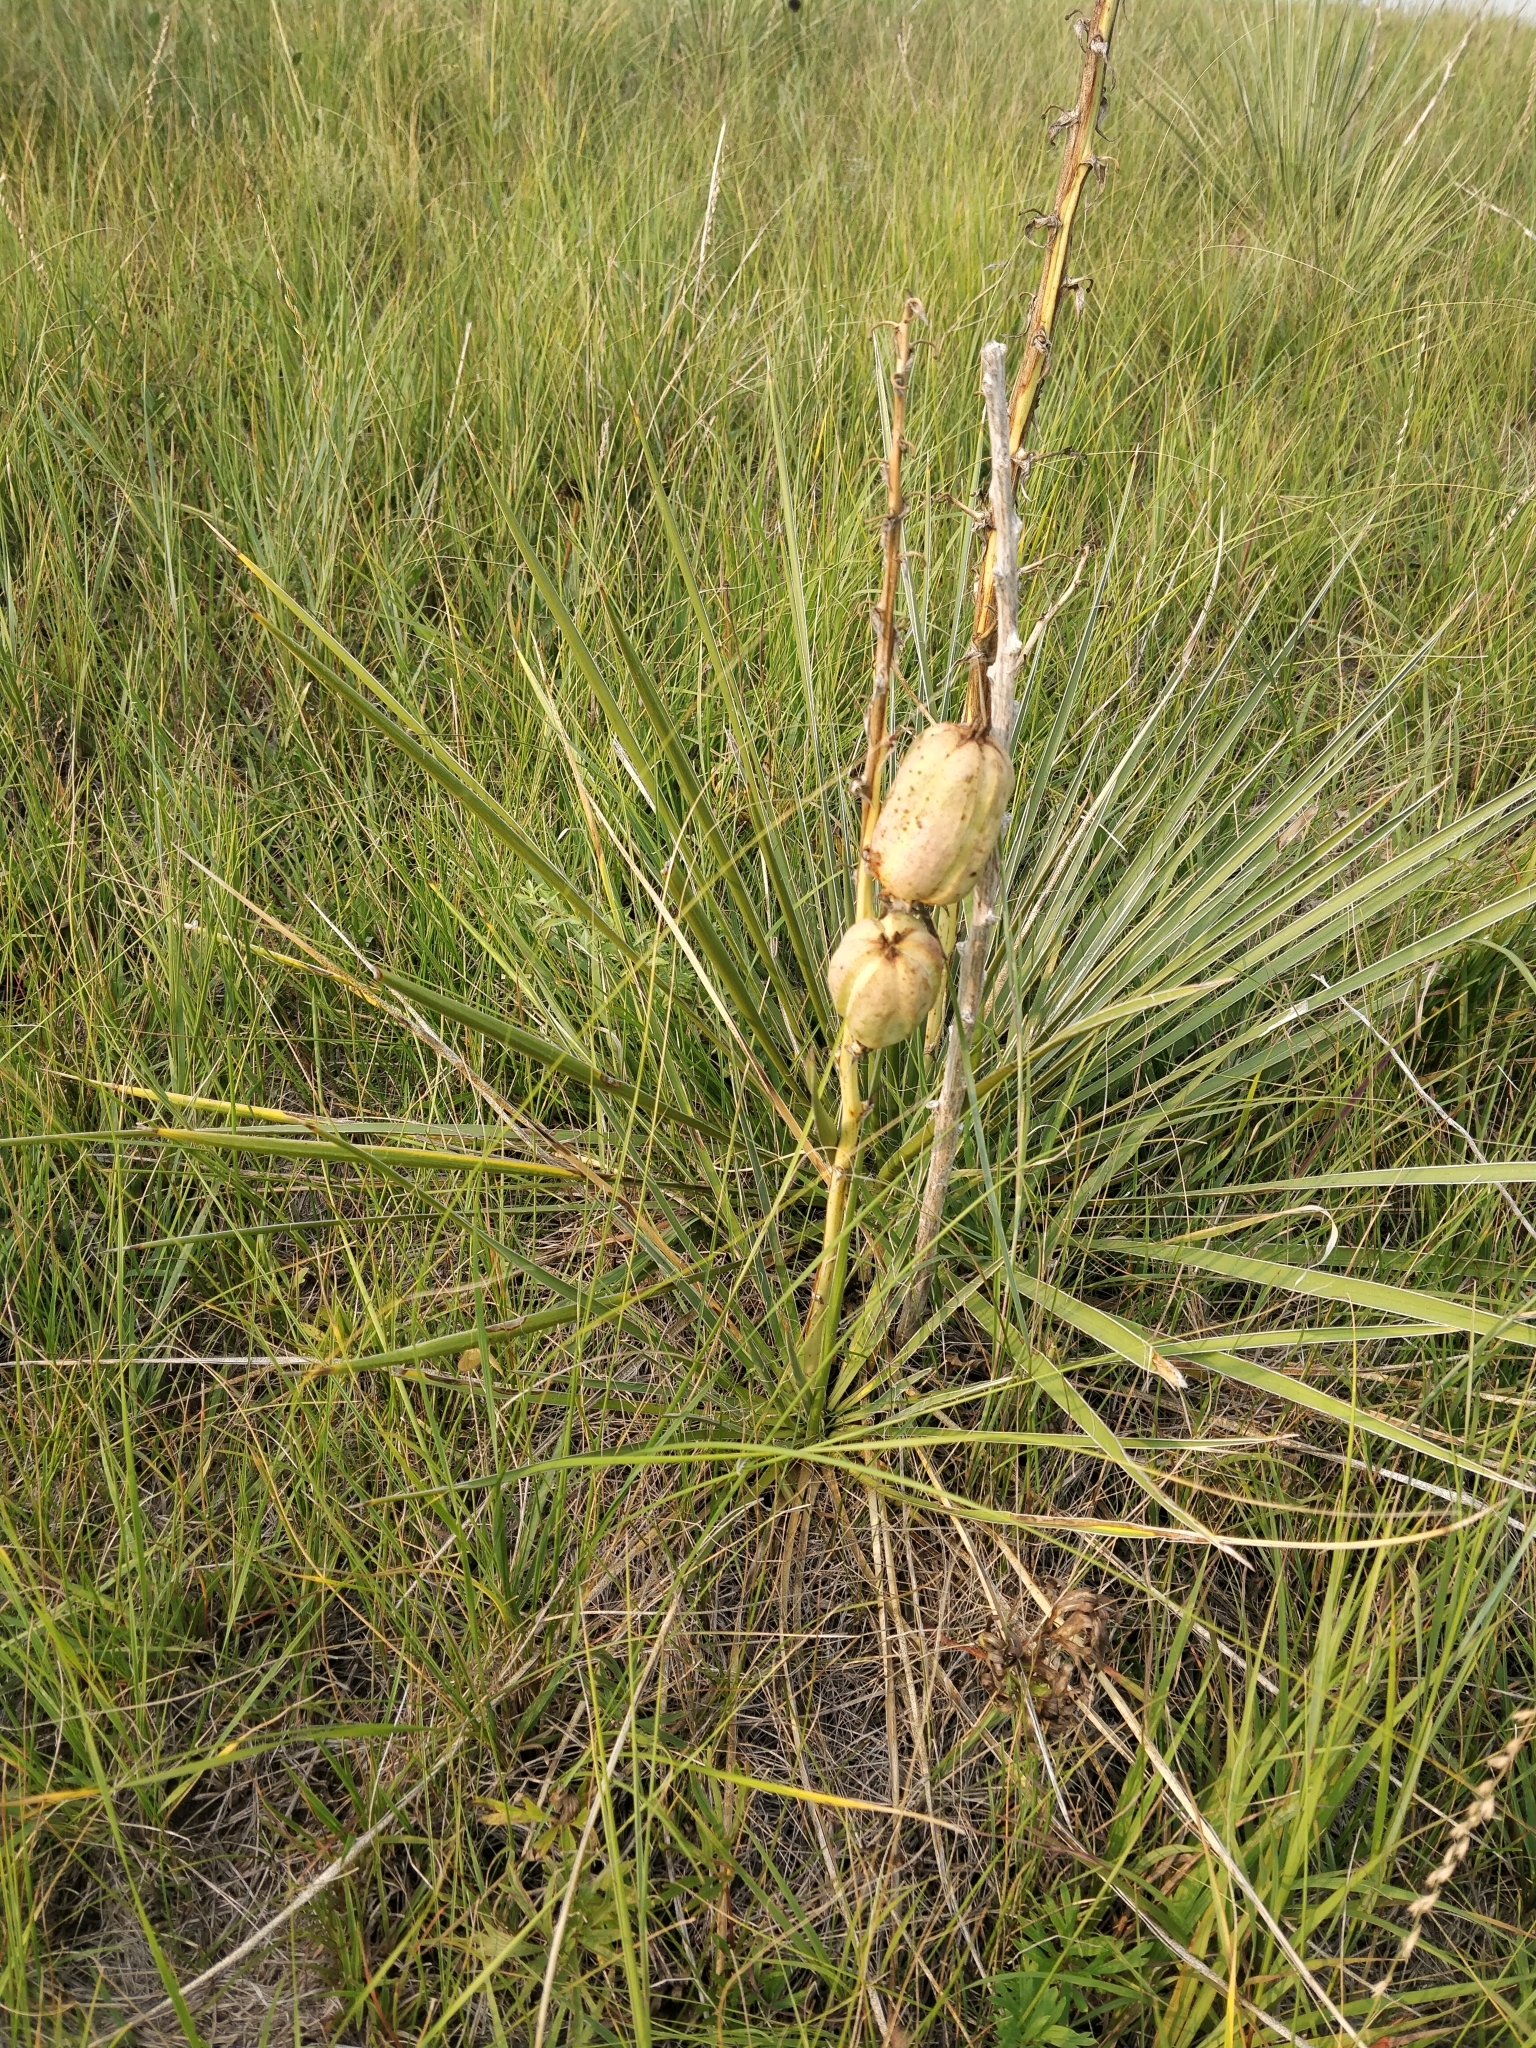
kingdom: Plantae
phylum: Tracheophyta
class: Liliopsida
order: Asparagales
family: Asparagaceae
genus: Yucca
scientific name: Yucca glauca
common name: Great plains yucca
